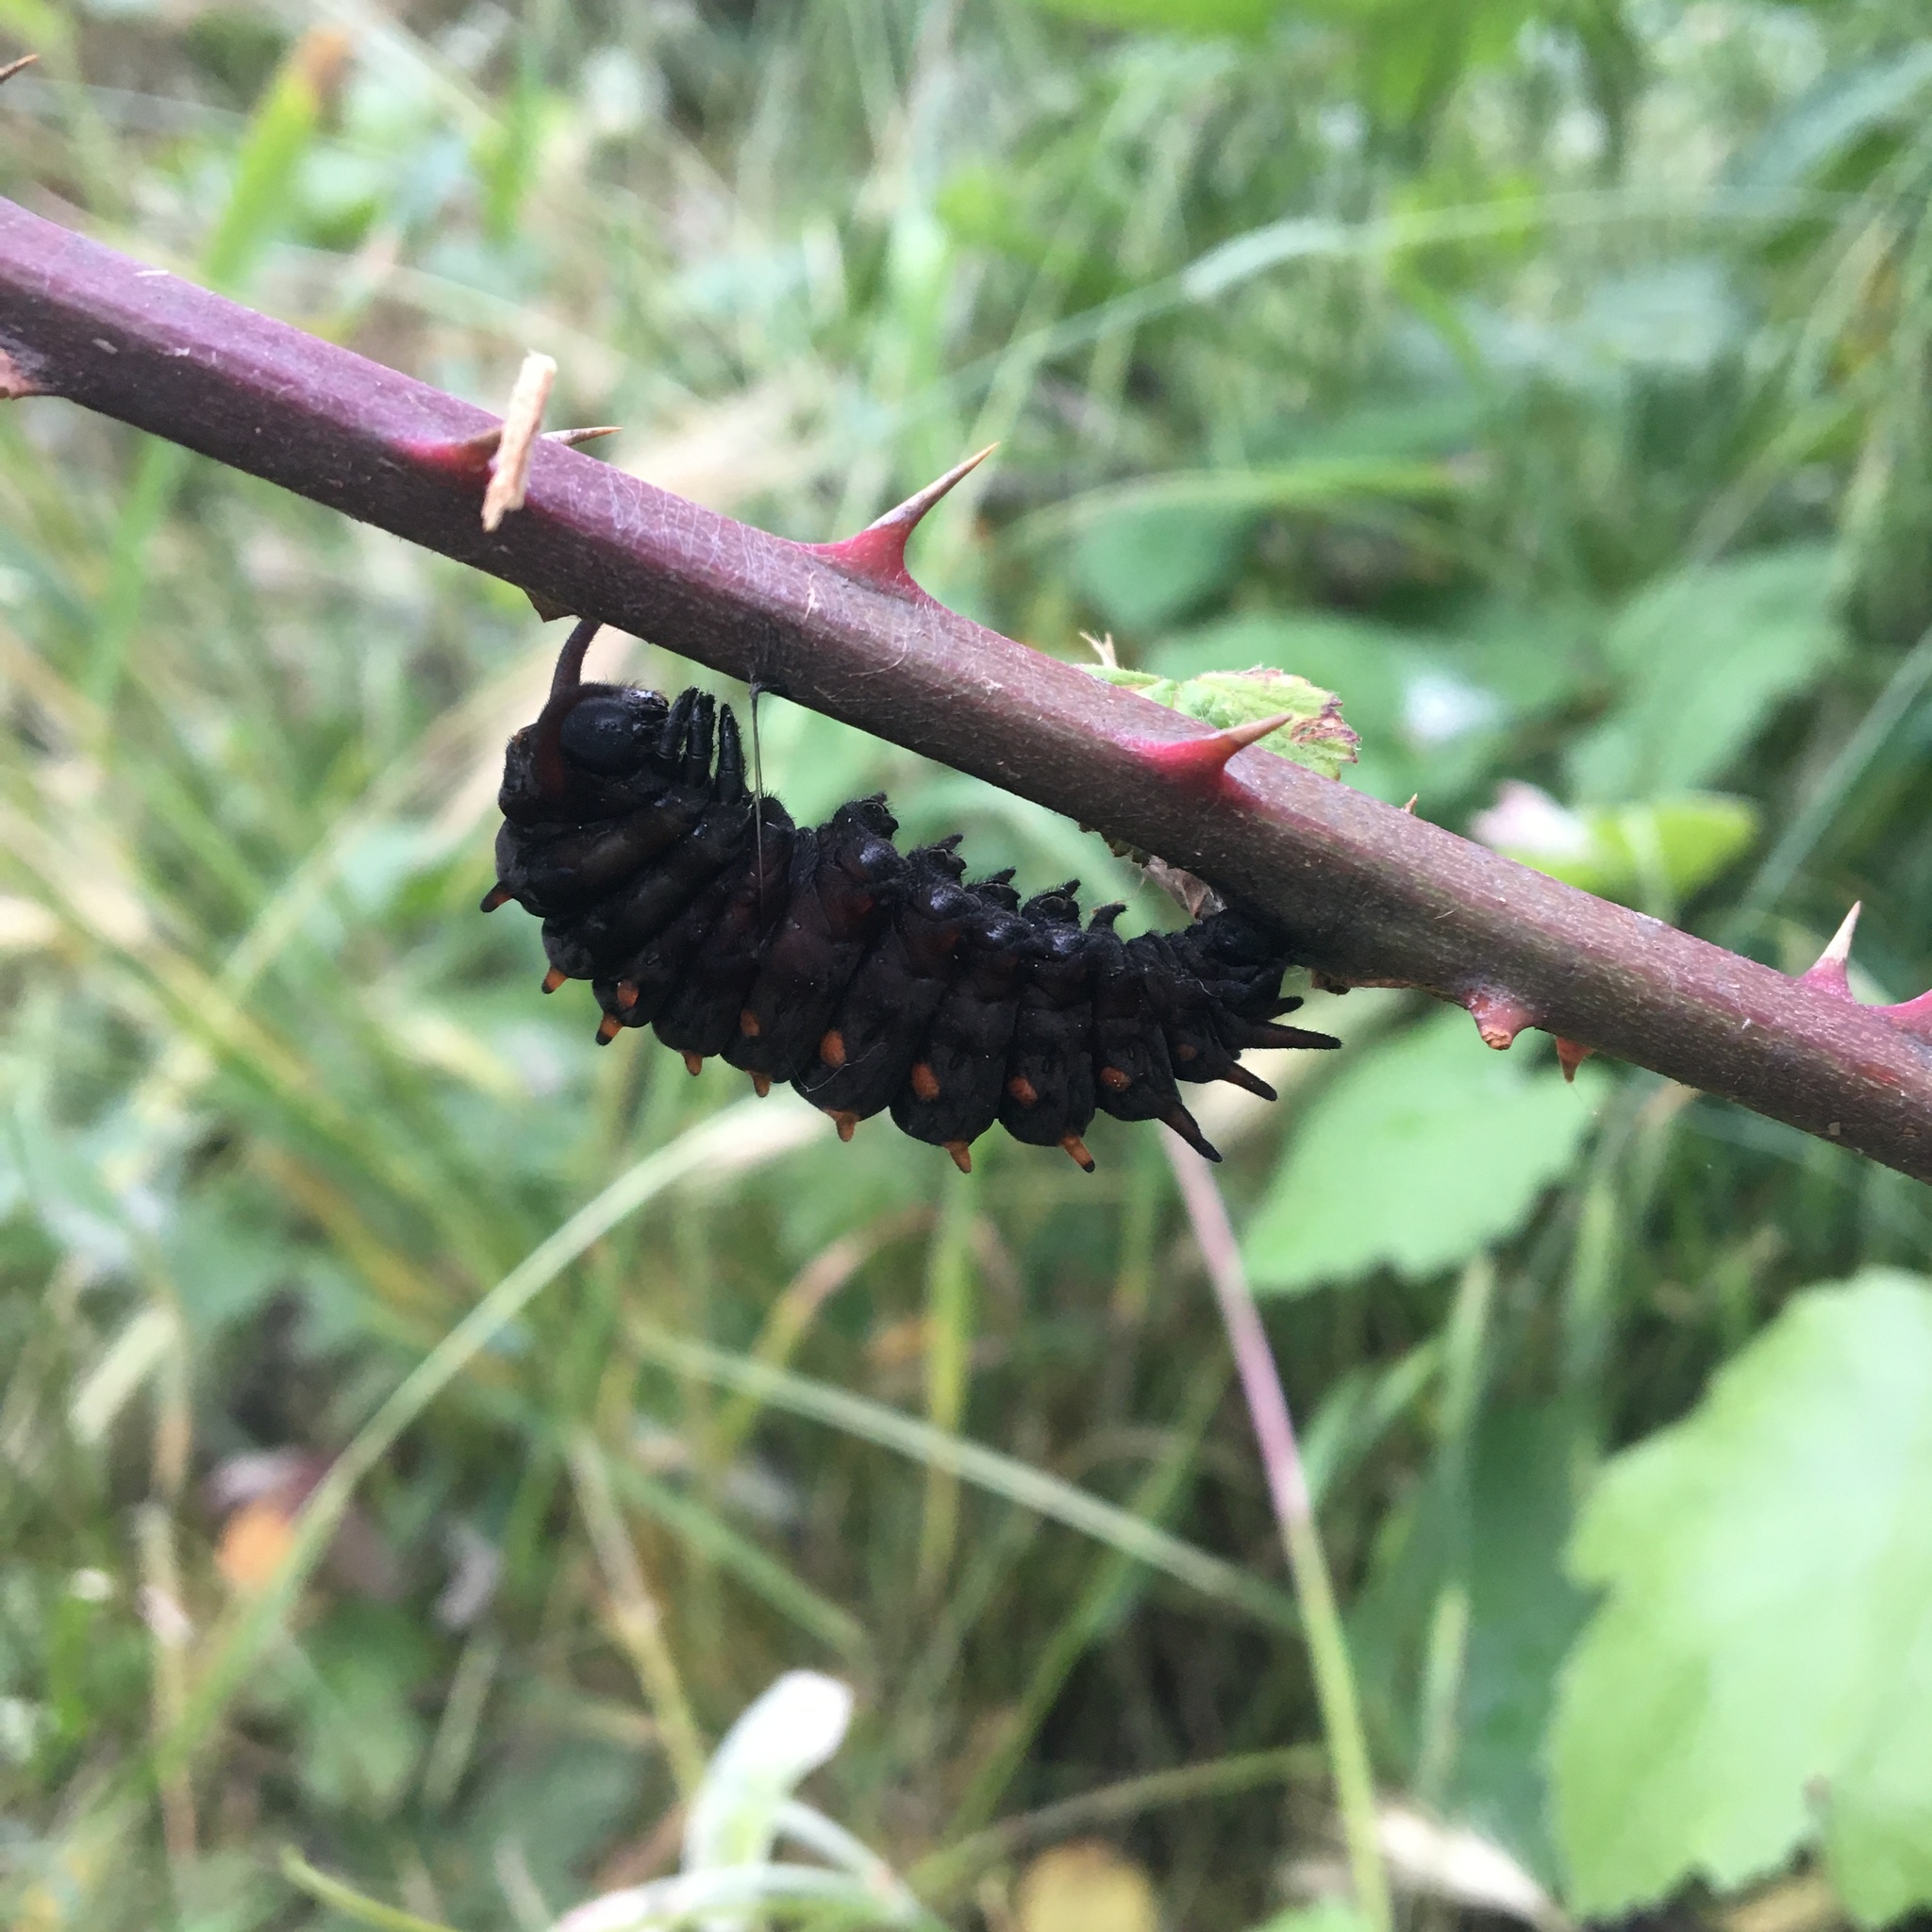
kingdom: Animalia
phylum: Arthropoda
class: Insecta
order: Lepidoptera
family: Papilionidae
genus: Battus
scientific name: Battus philenor
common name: Pipevine swallowtail
